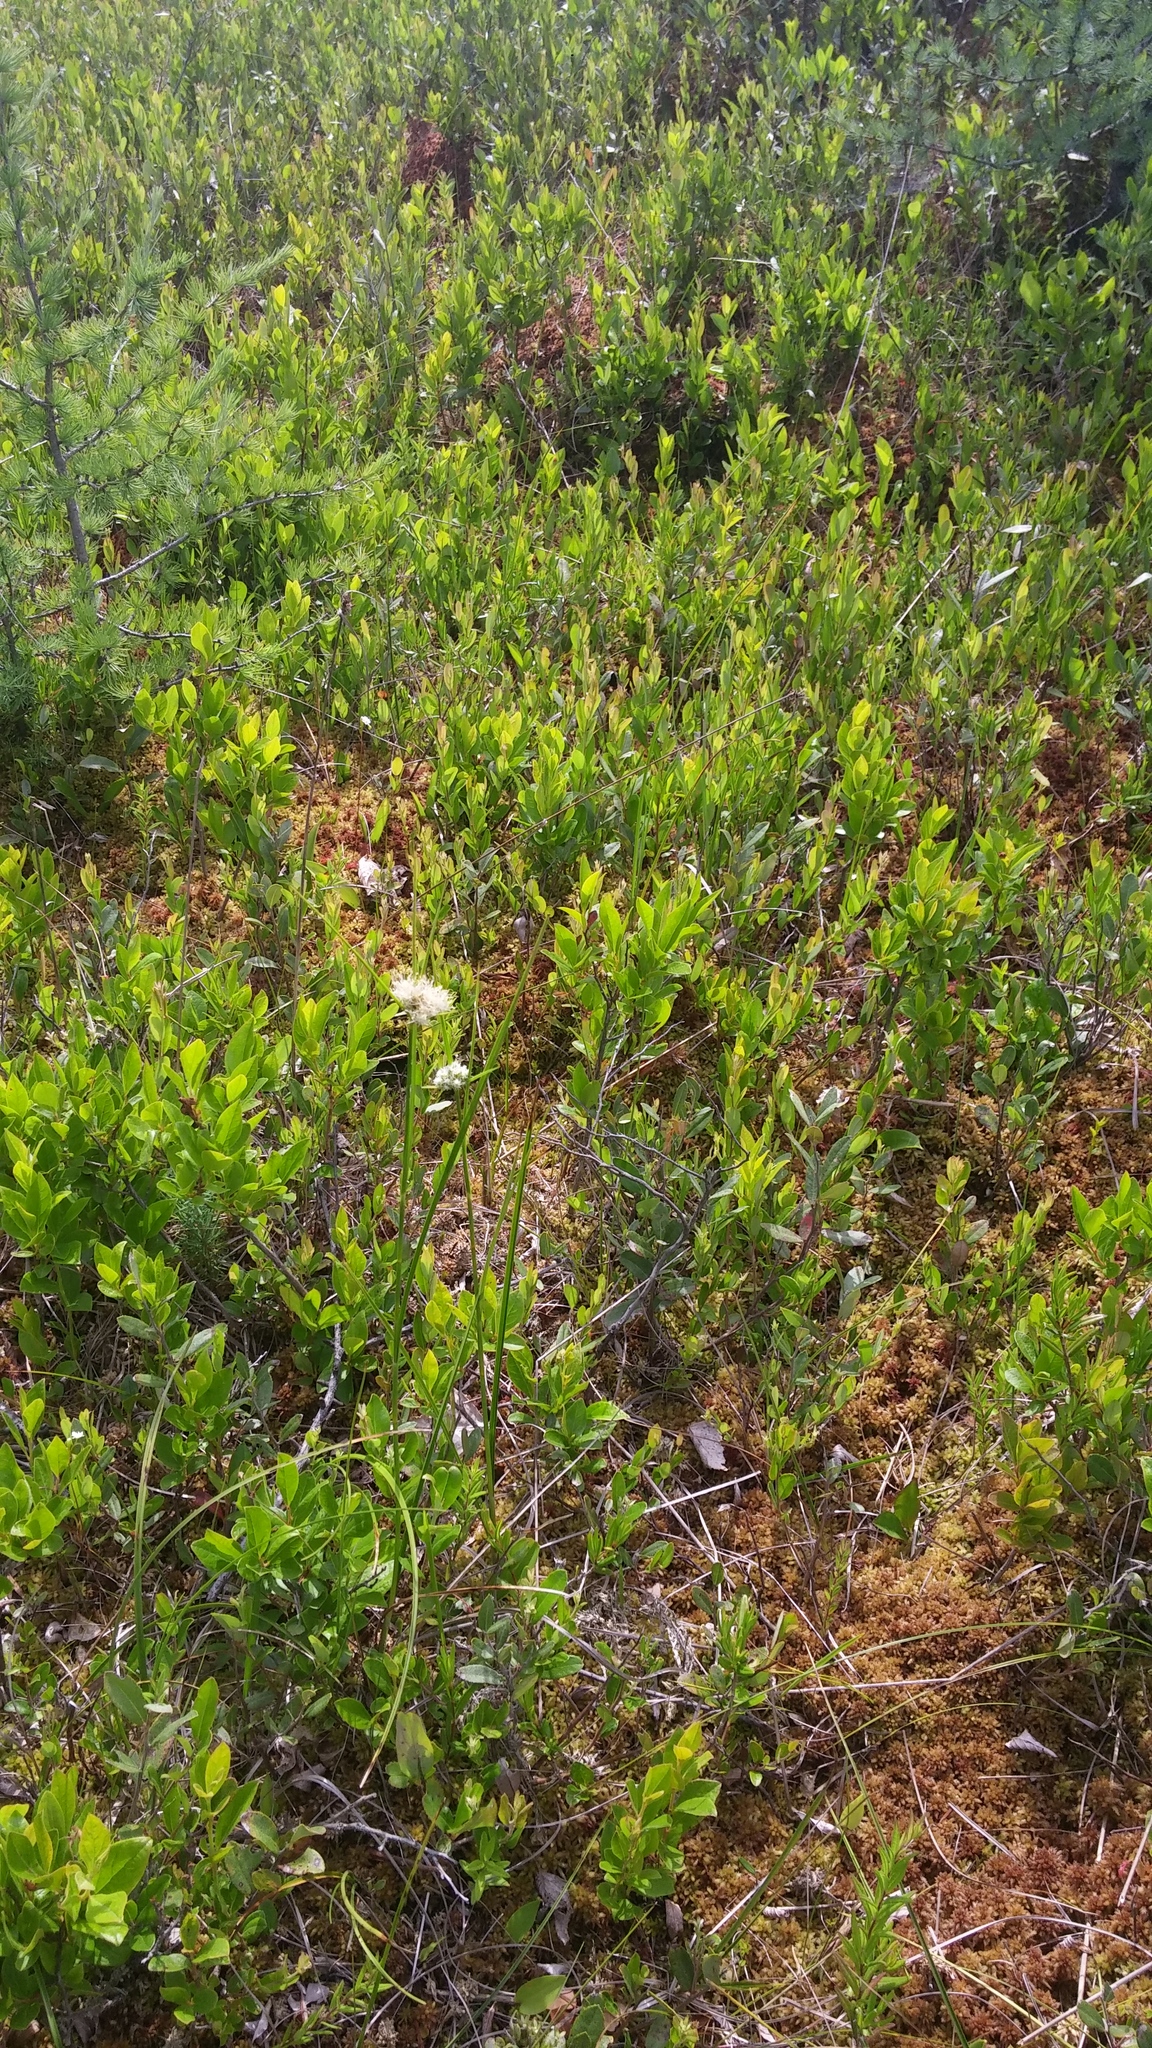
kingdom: Plantae
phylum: Tracheophyta
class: Liliopsida
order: Poales
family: Cyperaceae
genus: Eriophorum
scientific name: Eriophorum virginicum
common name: Tawny cottongrass
